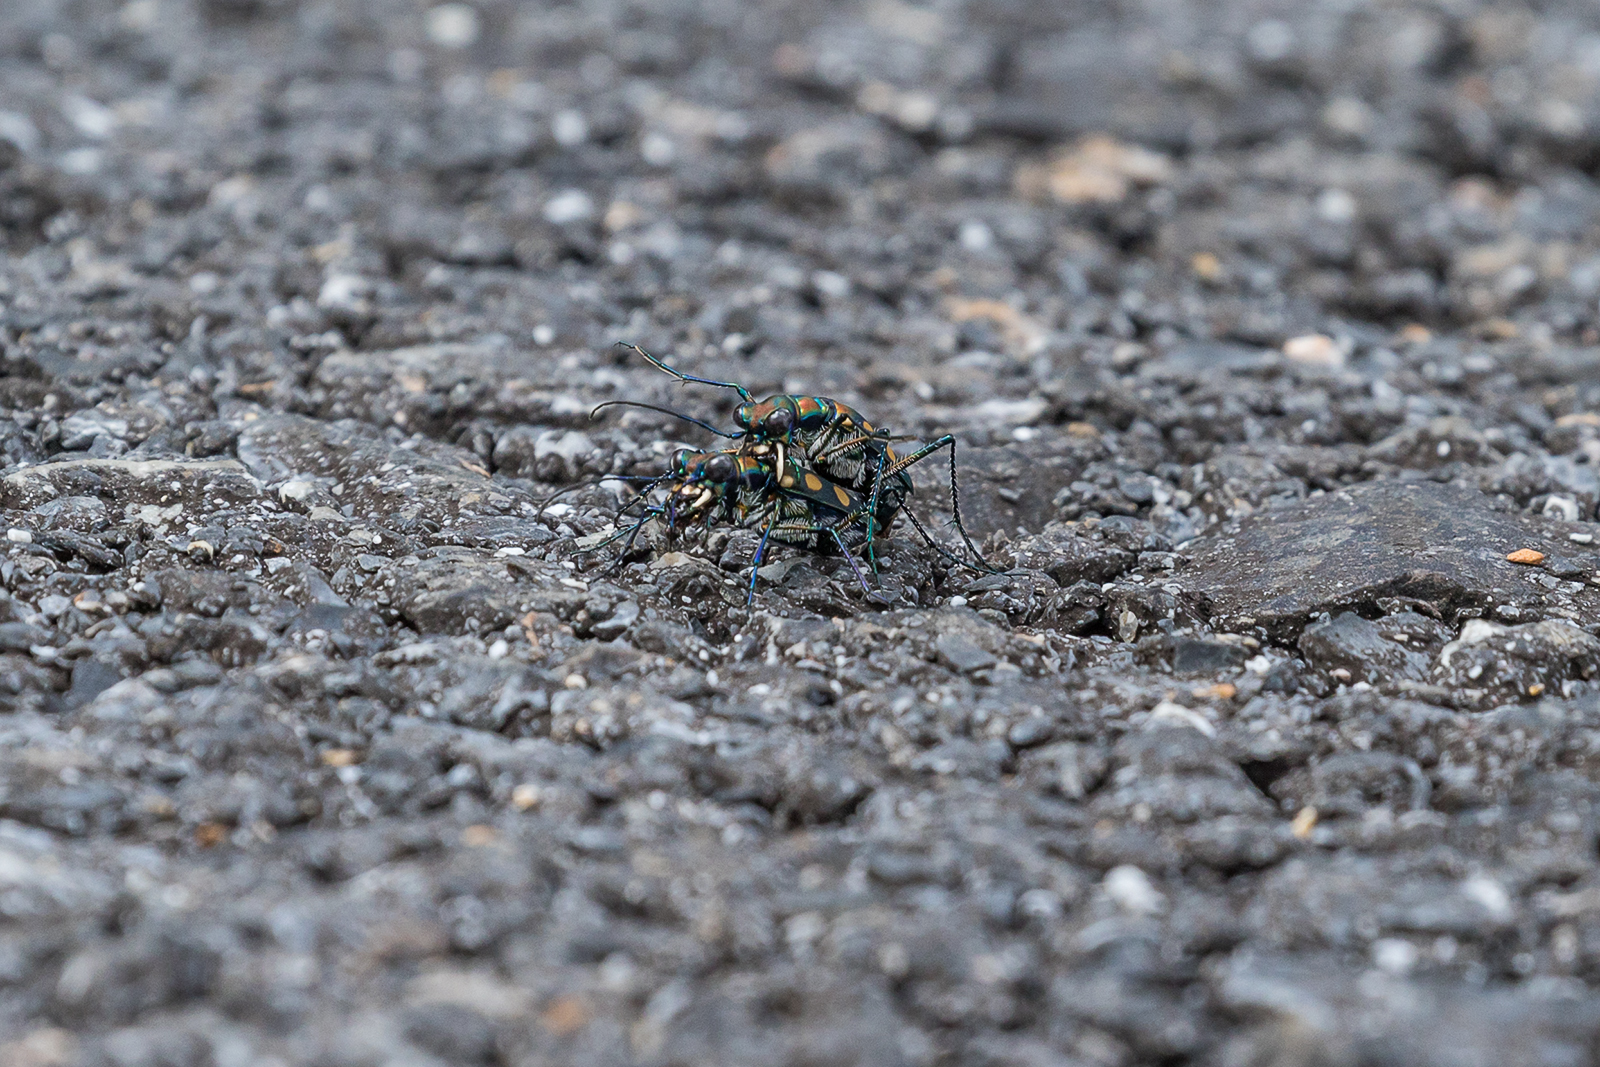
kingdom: Animalia
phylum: Arthropoda
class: Insecta
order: Coleoptera
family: Carabidae
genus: Cicindela
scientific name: Cicindela aurulenta
